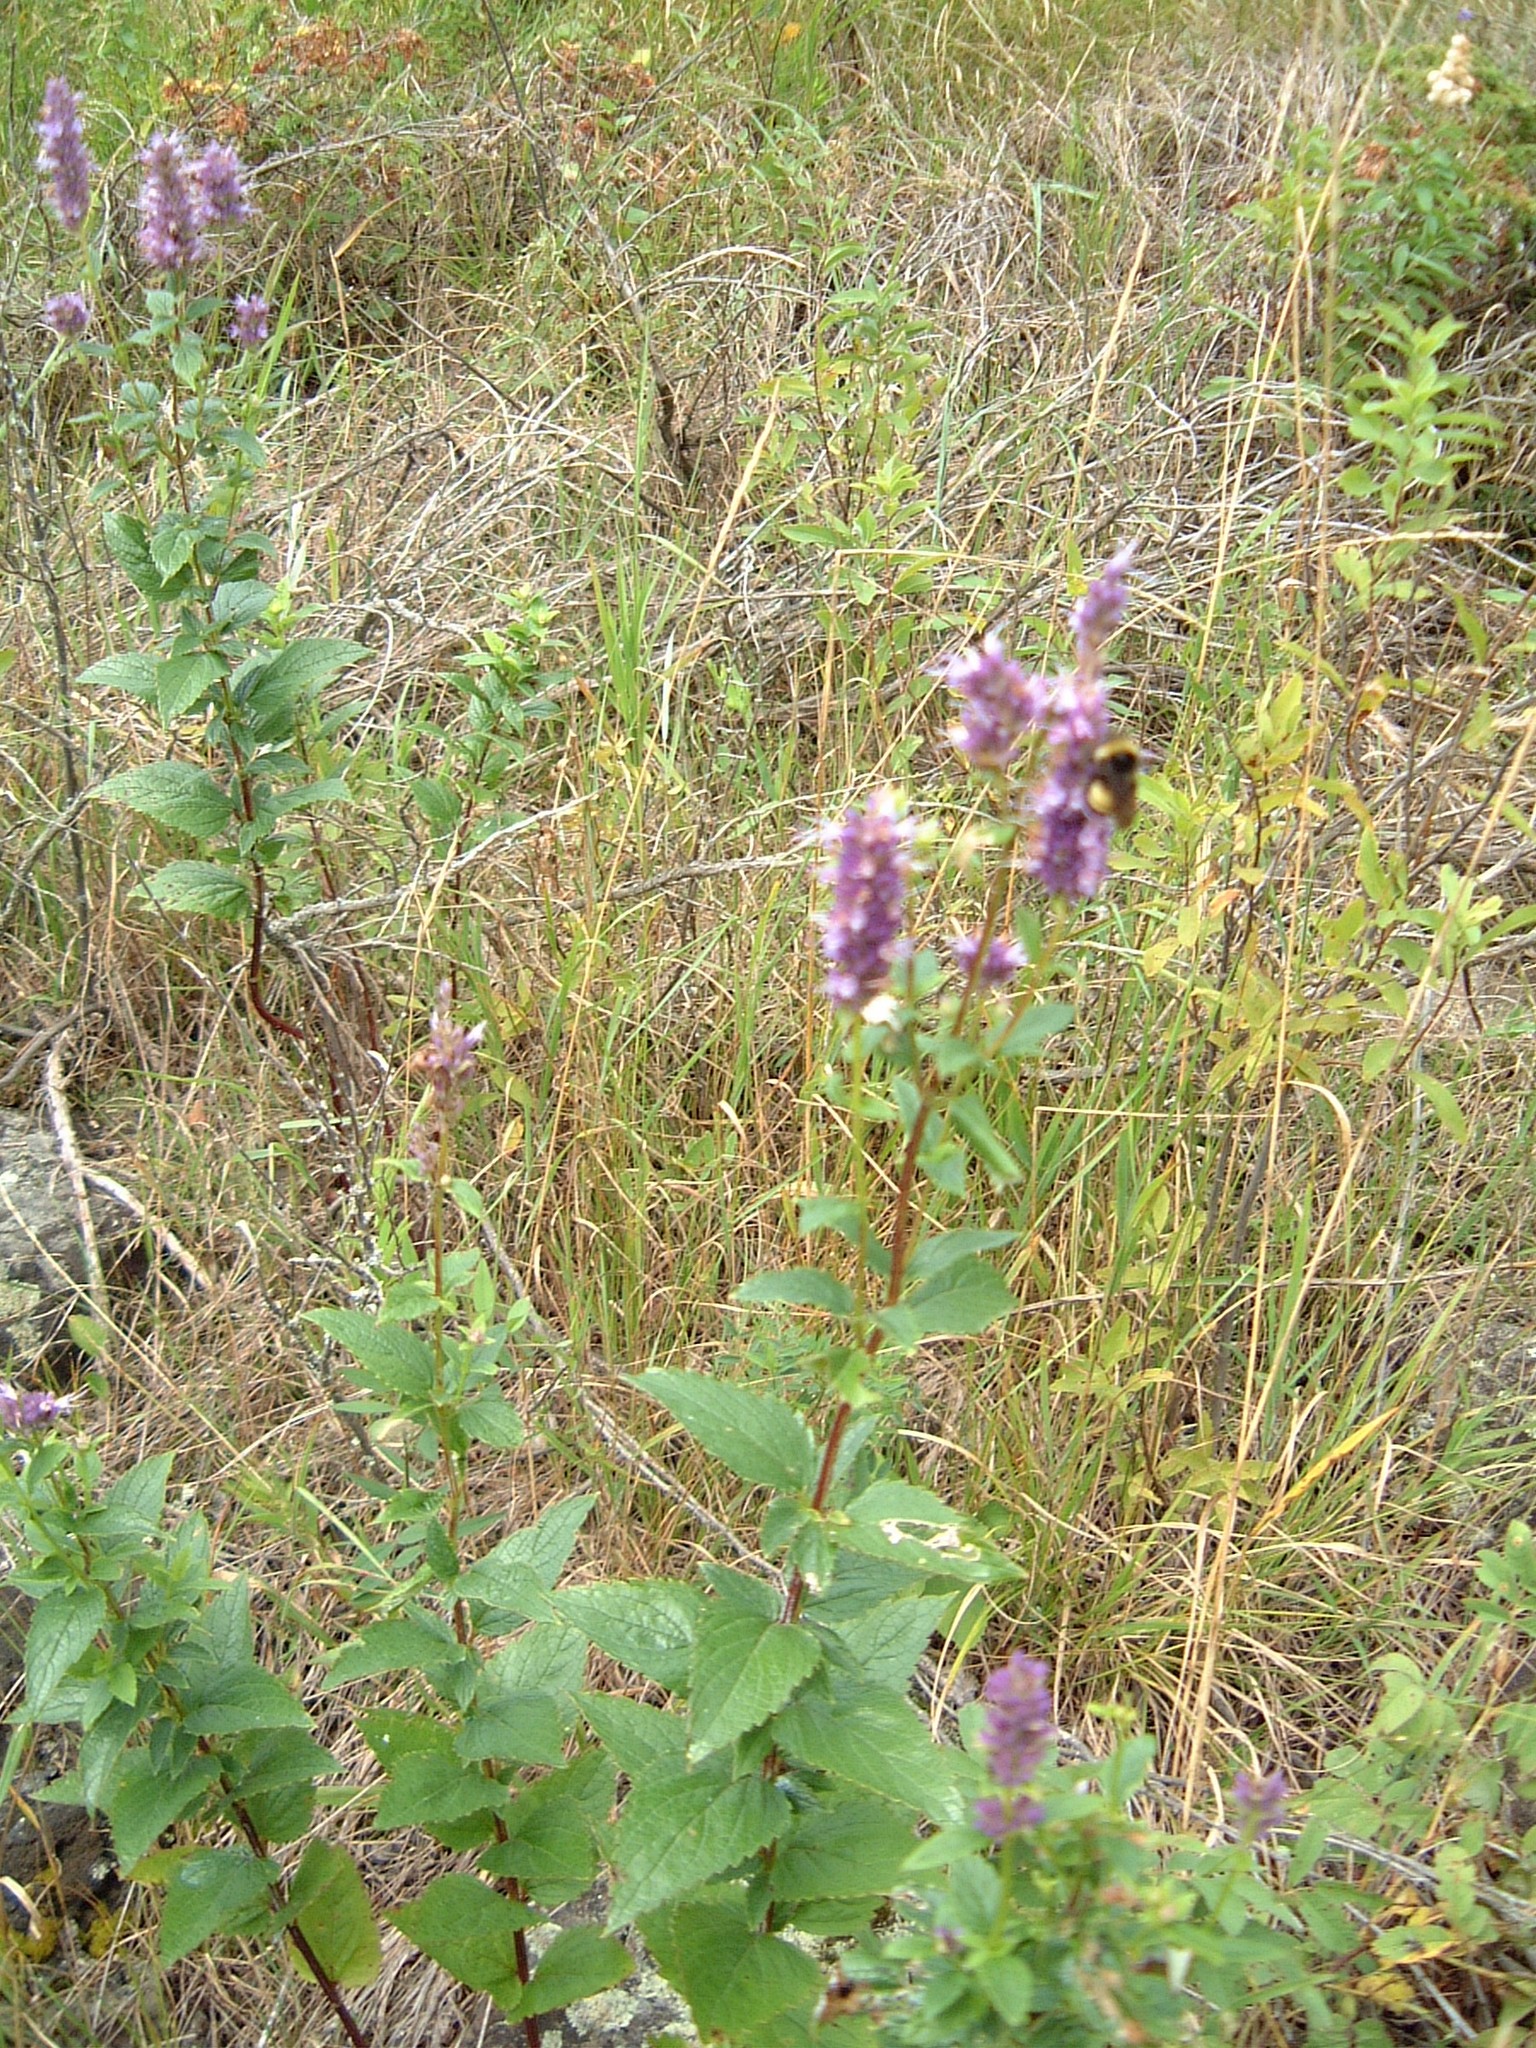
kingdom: Plantae
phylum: Tracheophyta
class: Magnoliopsida
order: Lamiales
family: Lamiaceae
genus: Agastache
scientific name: Agastache foeniculum
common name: Anise hyssop
